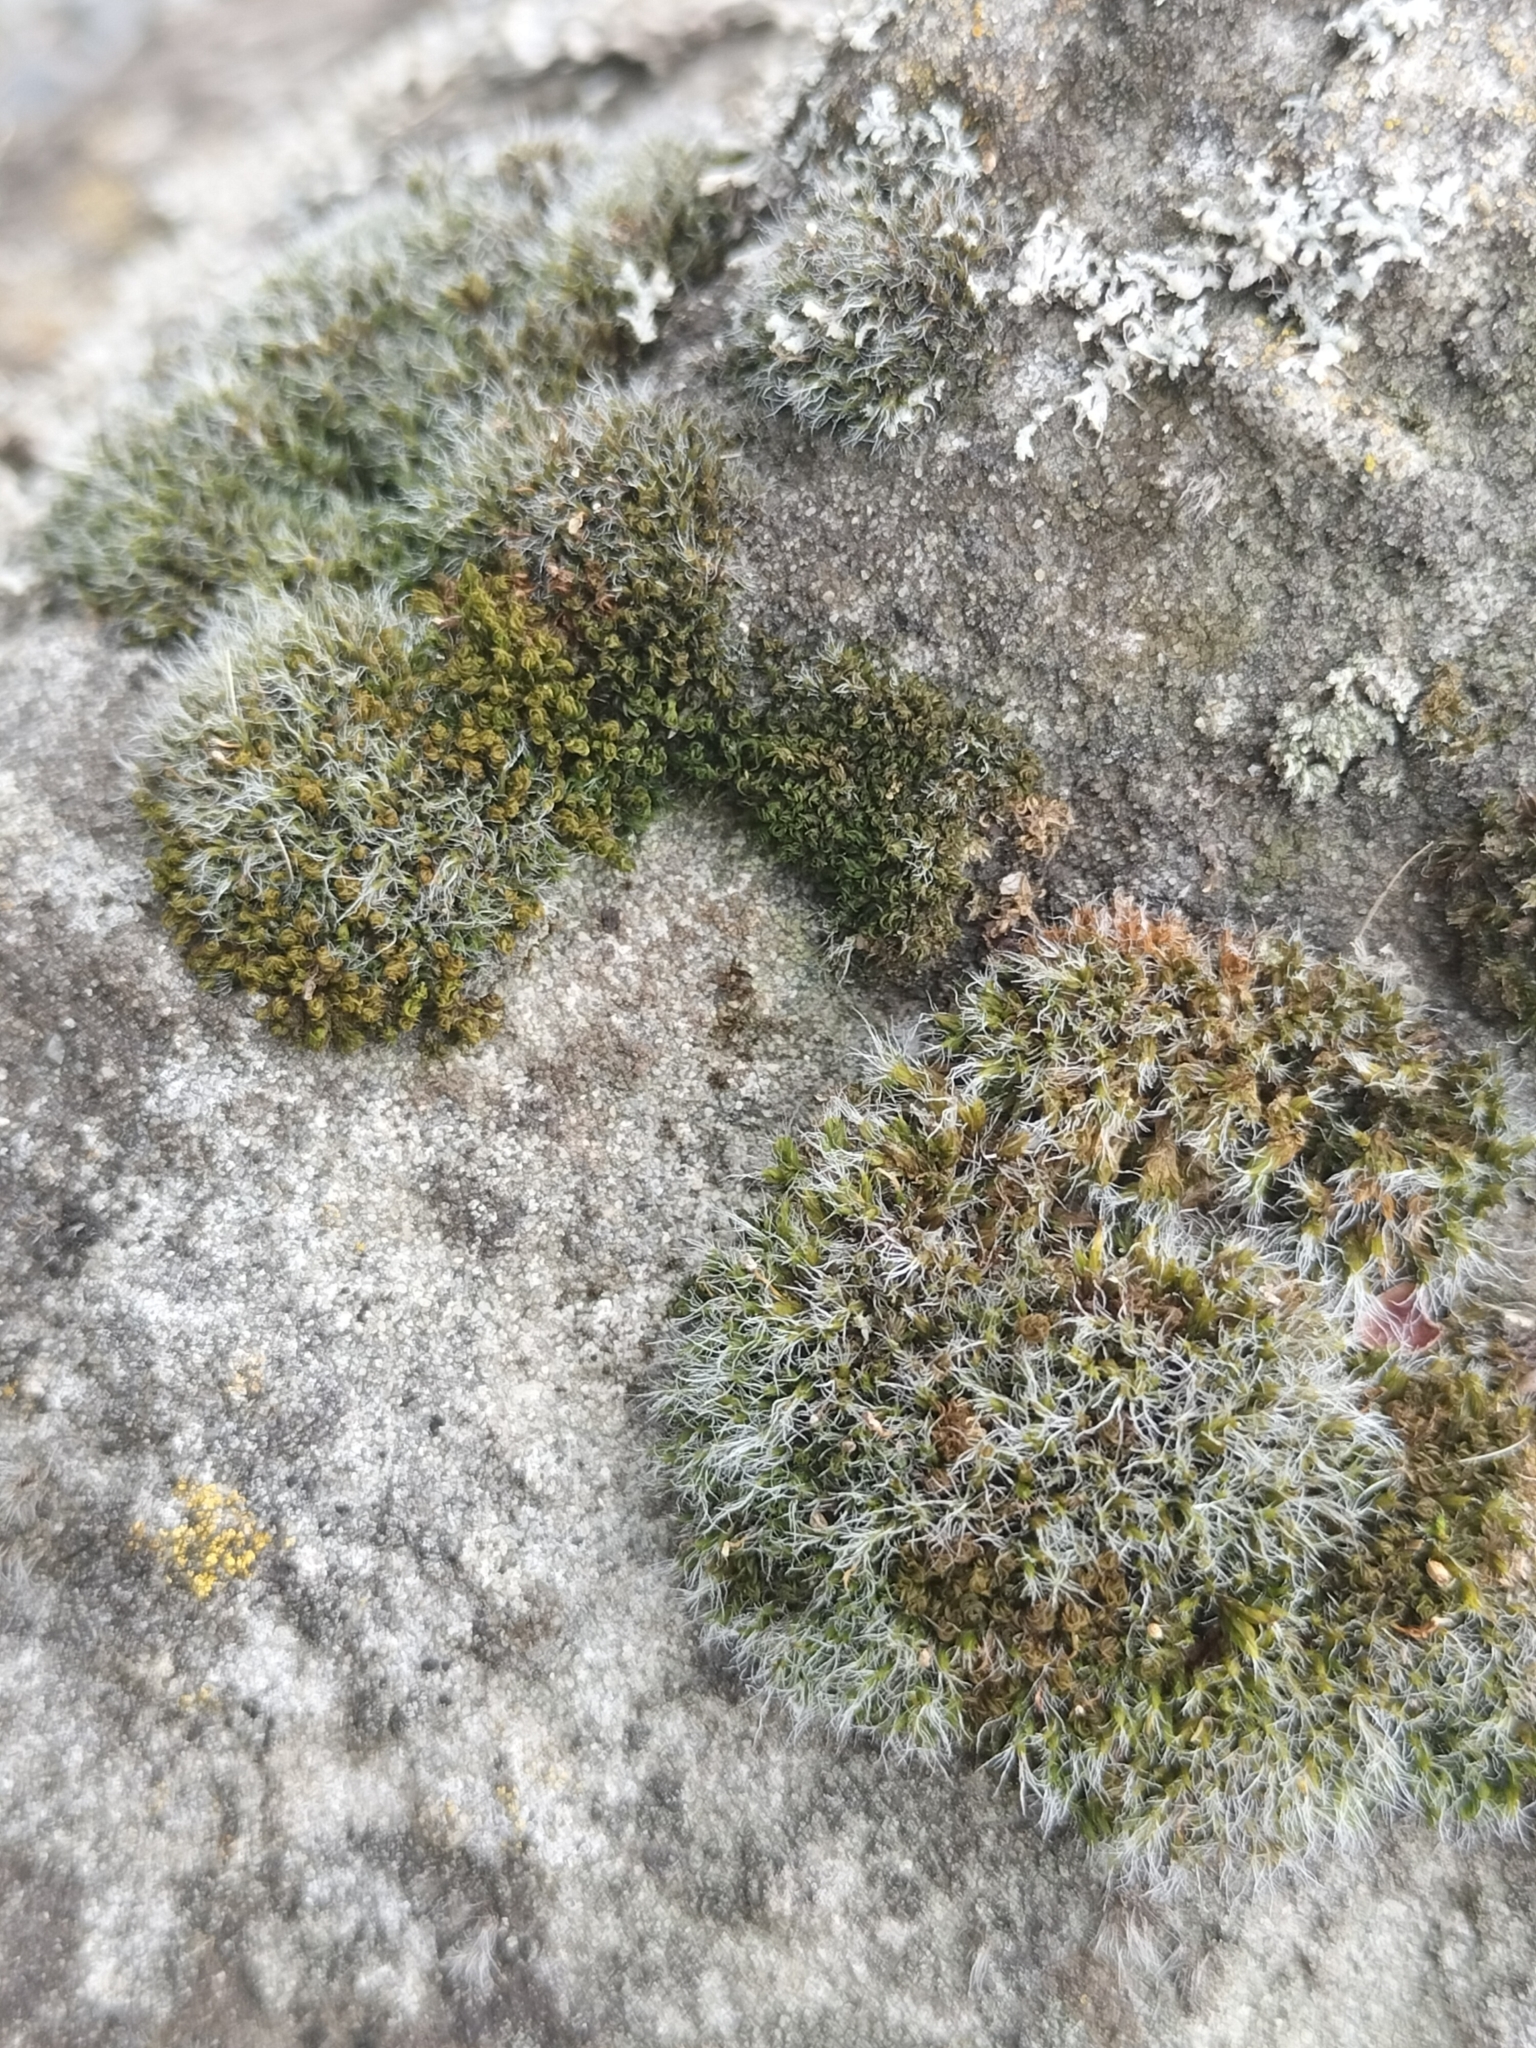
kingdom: Plantae
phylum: Bryophyta
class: Bryopsida
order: Pottiales
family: Pottiaceae
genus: Tortula
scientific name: Tortula muralis
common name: Wall screw-moss
